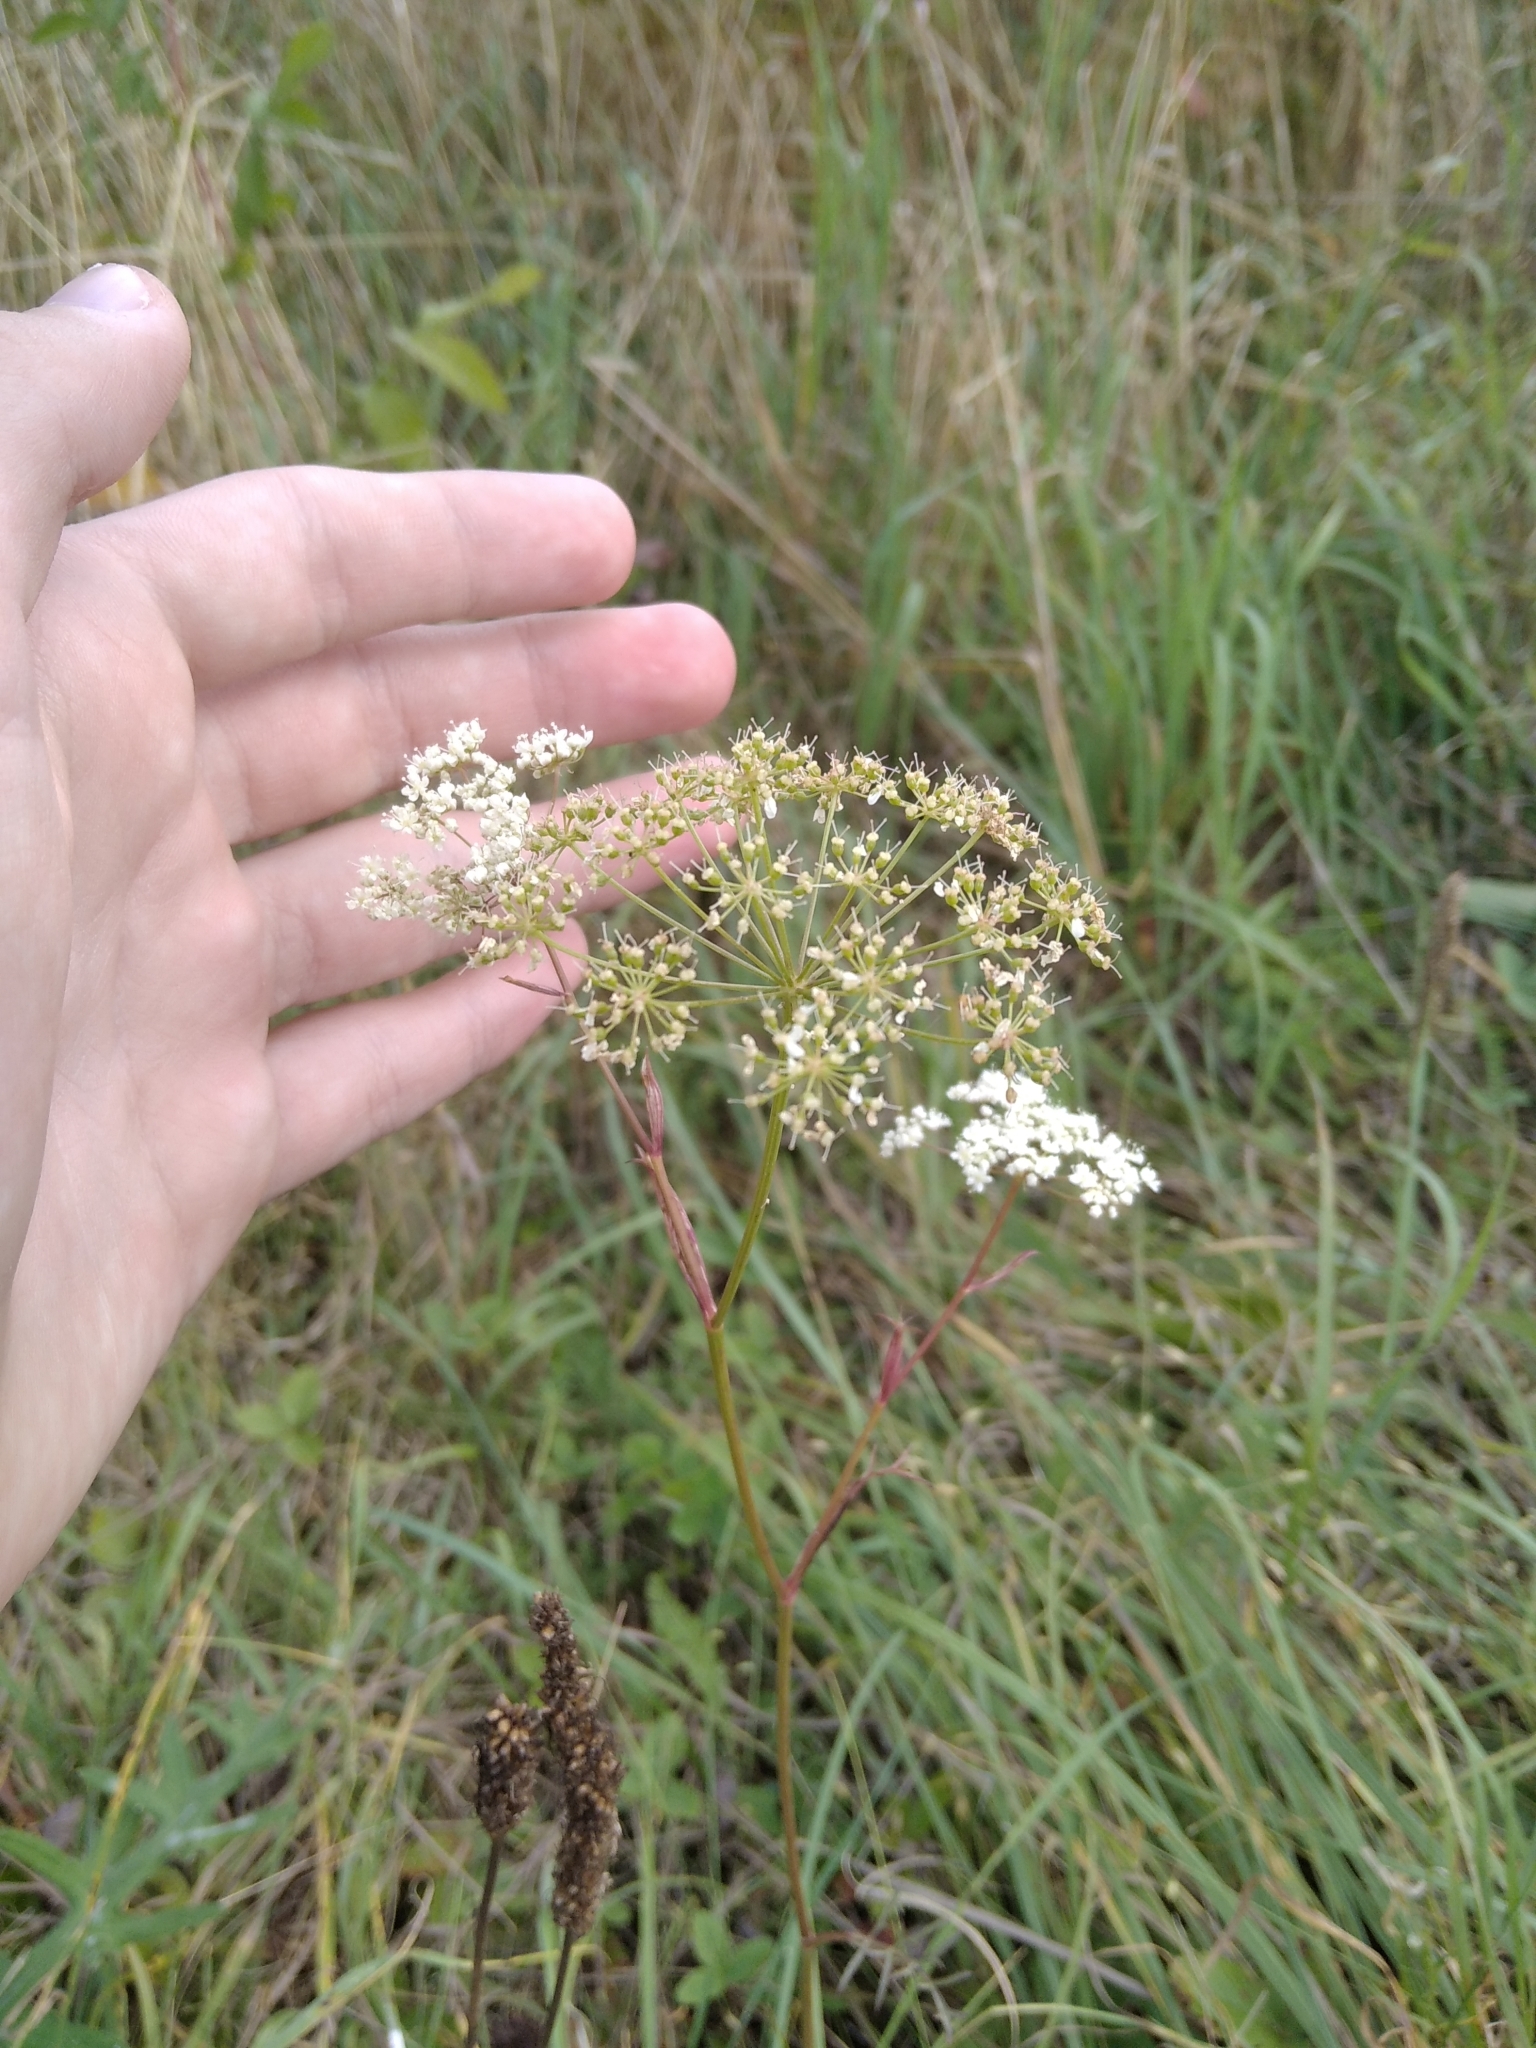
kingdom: Plantae
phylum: Tracheophyta
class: Magnoliopsida
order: Apiales
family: Apiaceae
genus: Pimpinella
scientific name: Pimpinella saxifraga
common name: Burnet-saxifrage
